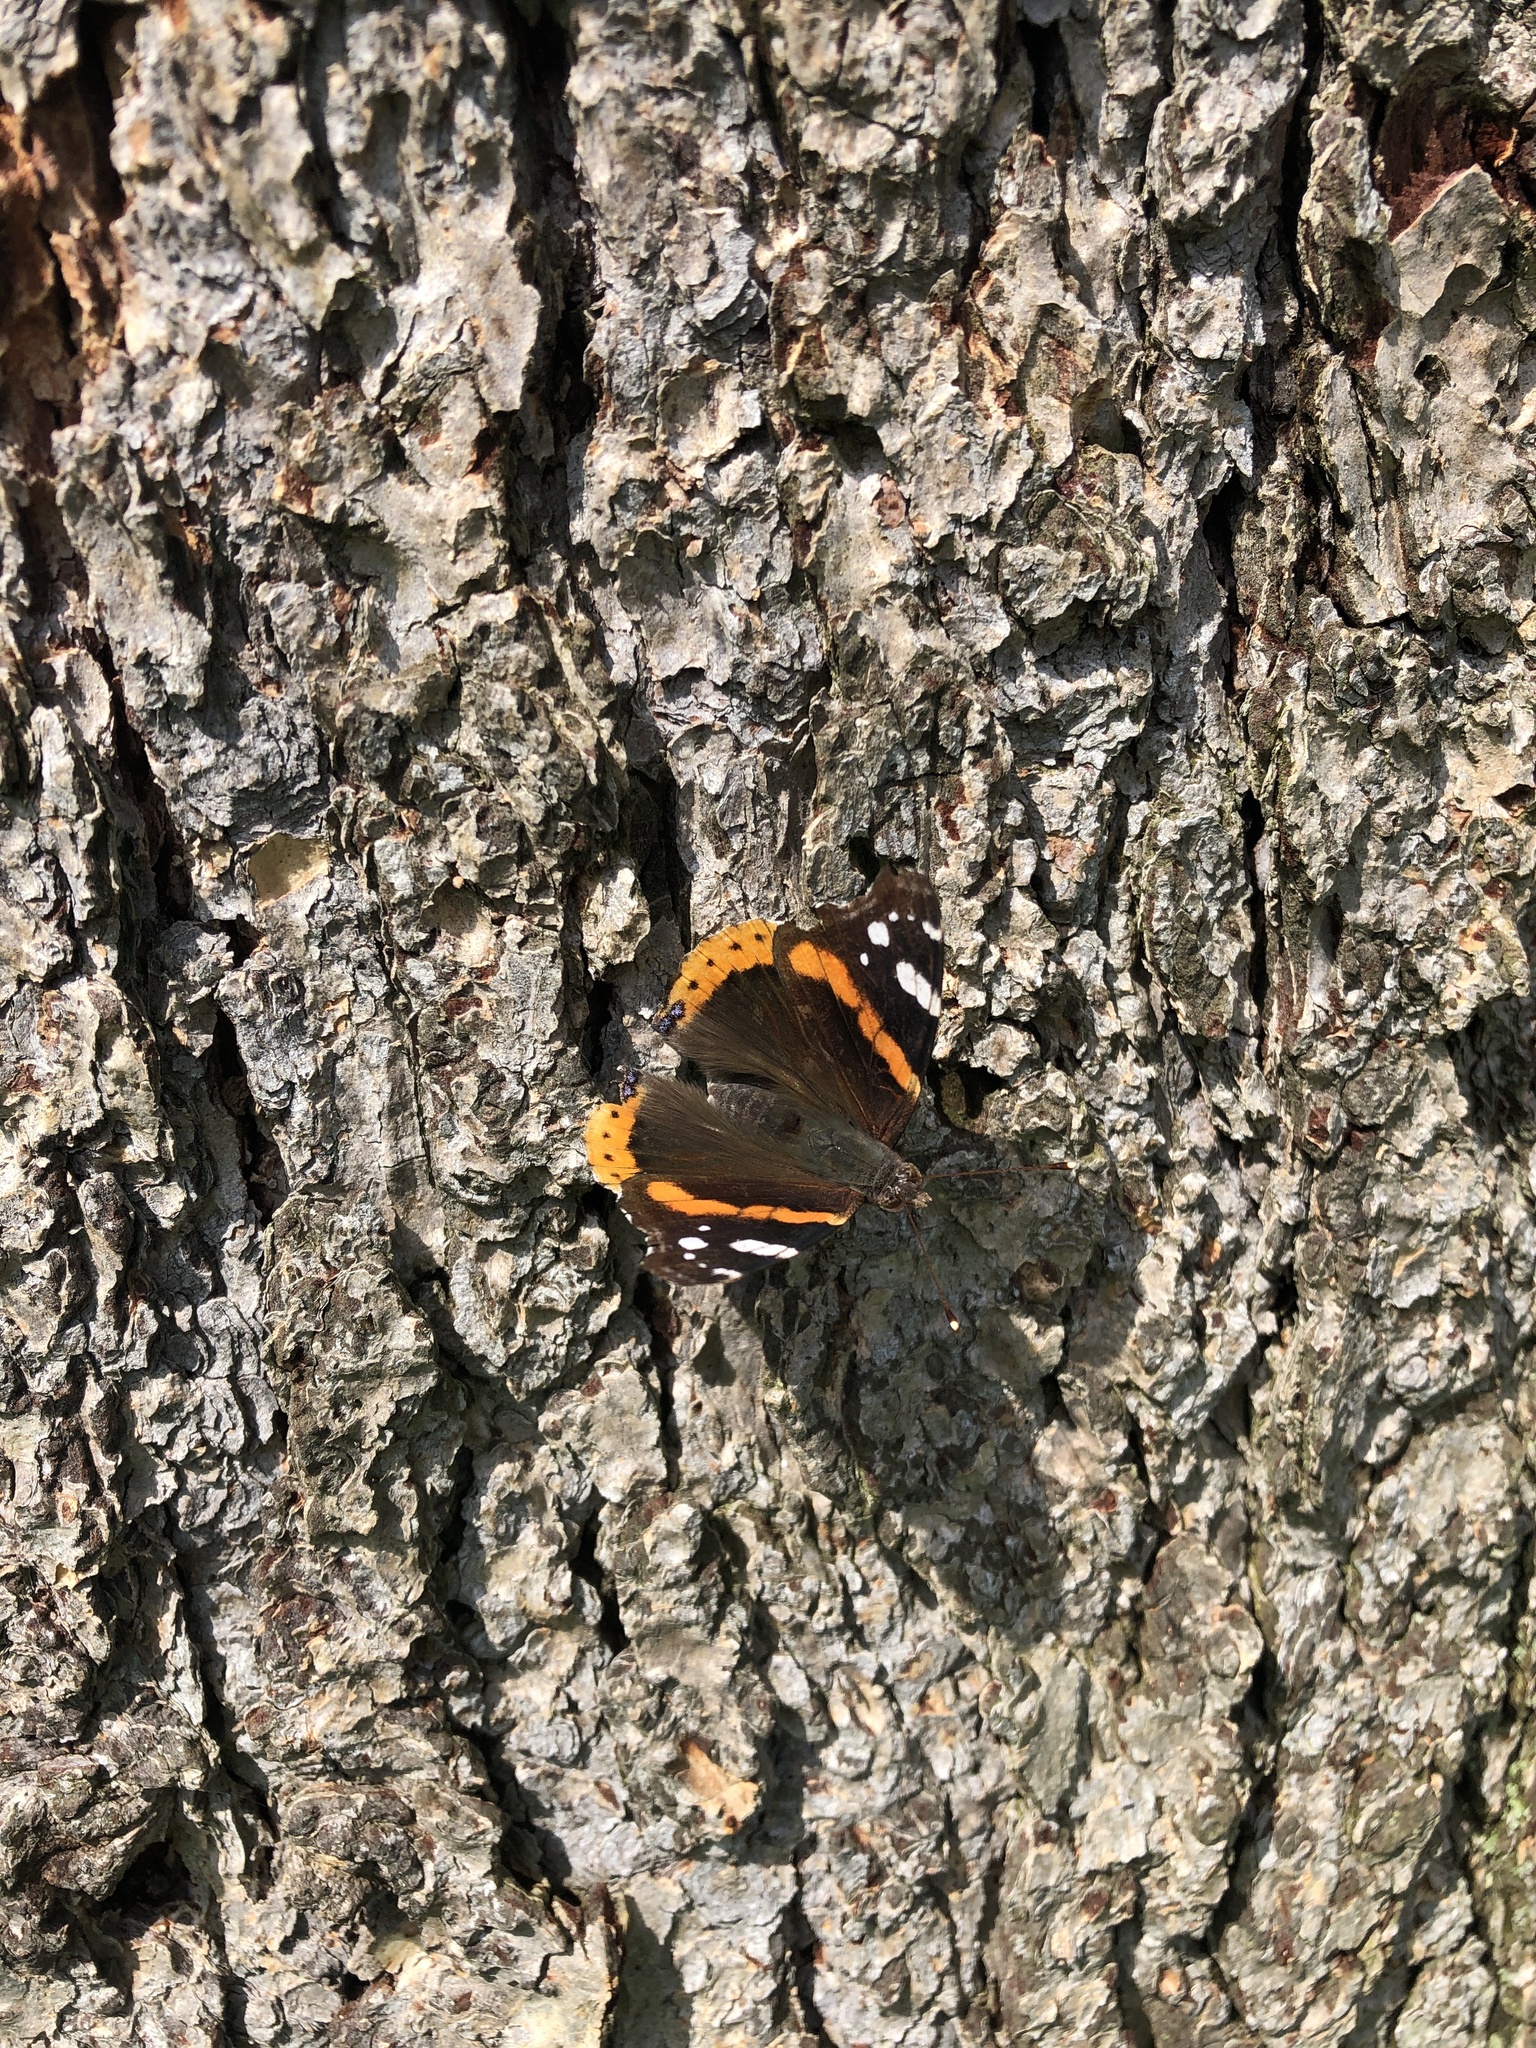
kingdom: Animalia
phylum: Arthropoda
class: Insecta
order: Lepidoptera
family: Nymphalidae
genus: Vanessa
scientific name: Vanessa atalanta
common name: Red admiral
